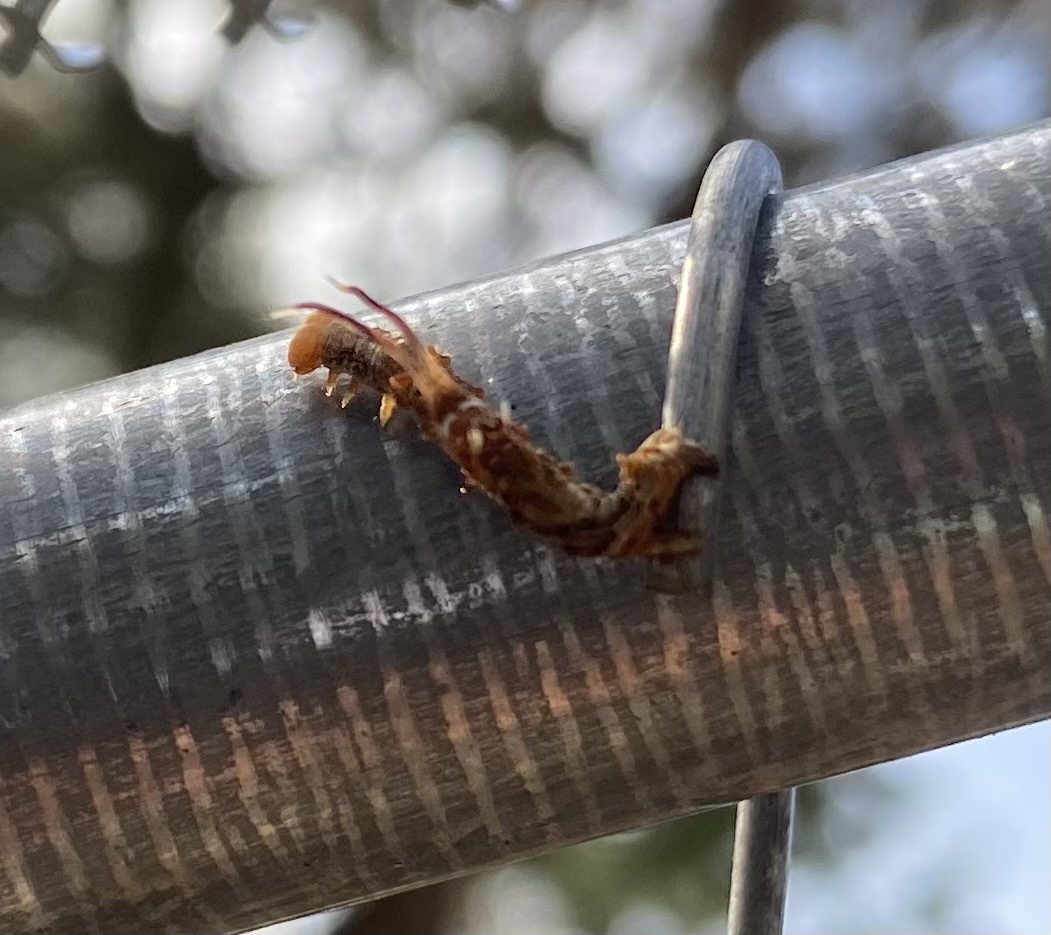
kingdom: Animalia
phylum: Arthropoda
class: Insecta
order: Lepidoptera
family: Geometridae
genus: Nematocampa
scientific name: Nematocampa resistaria
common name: Horned spanworm moth
